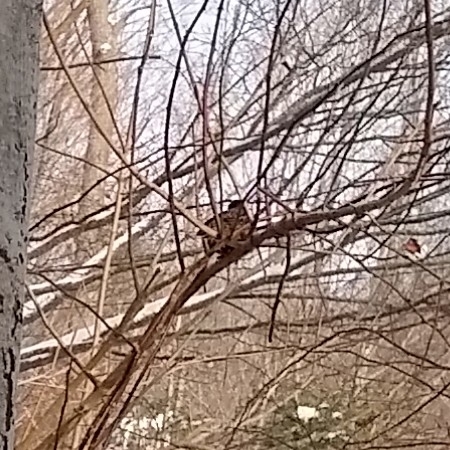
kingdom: Animalia
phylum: Chordata
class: Aves
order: Passeriformes
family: Sturnidae
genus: Sturnus
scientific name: Sturnus vulgaris
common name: Common starling
